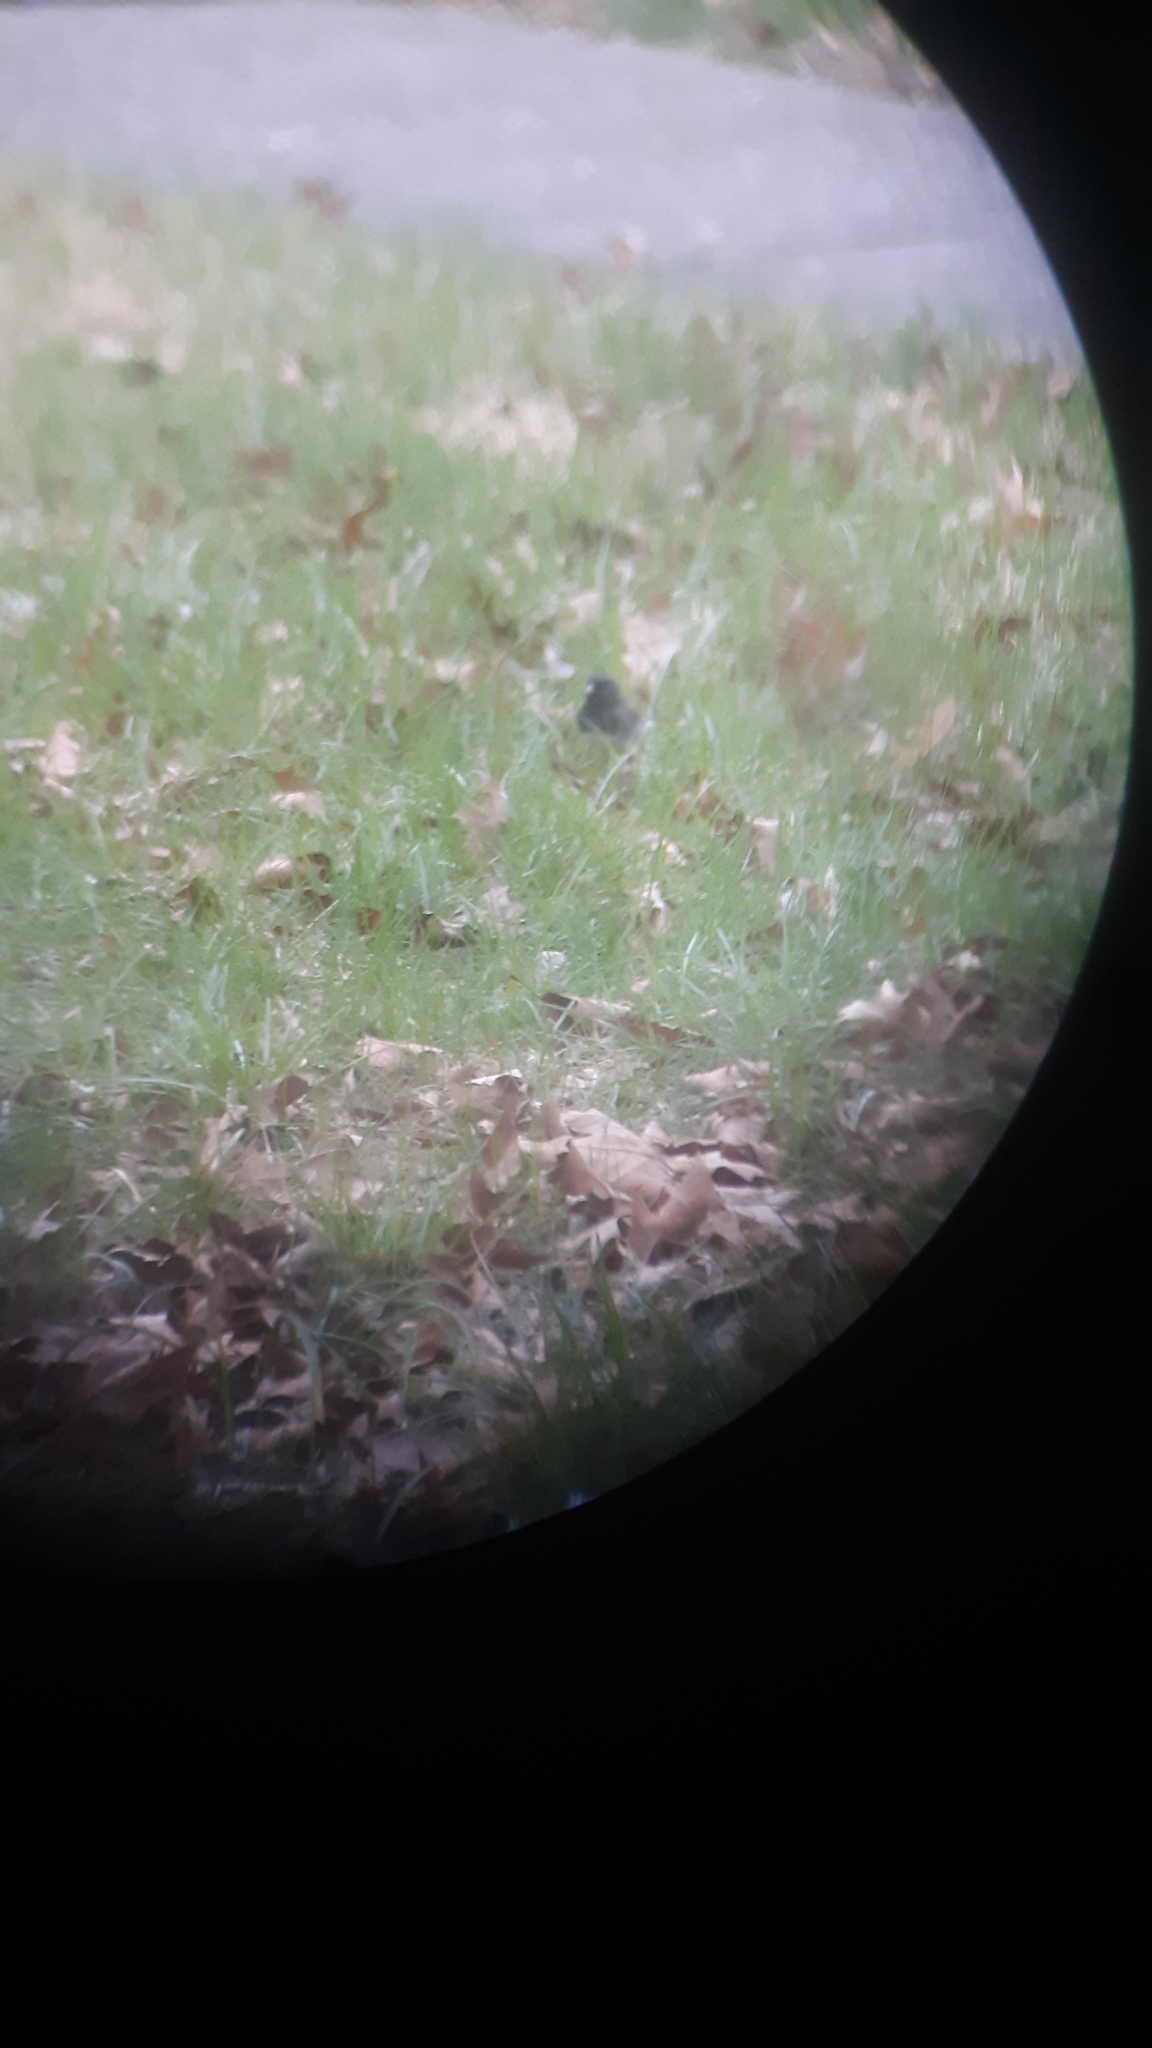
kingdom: Animalia
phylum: Chordata
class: Aves
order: Passeriformes
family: Passerellidae
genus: Junco
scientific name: Junco hyemalis
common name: Dark-eyed junco
